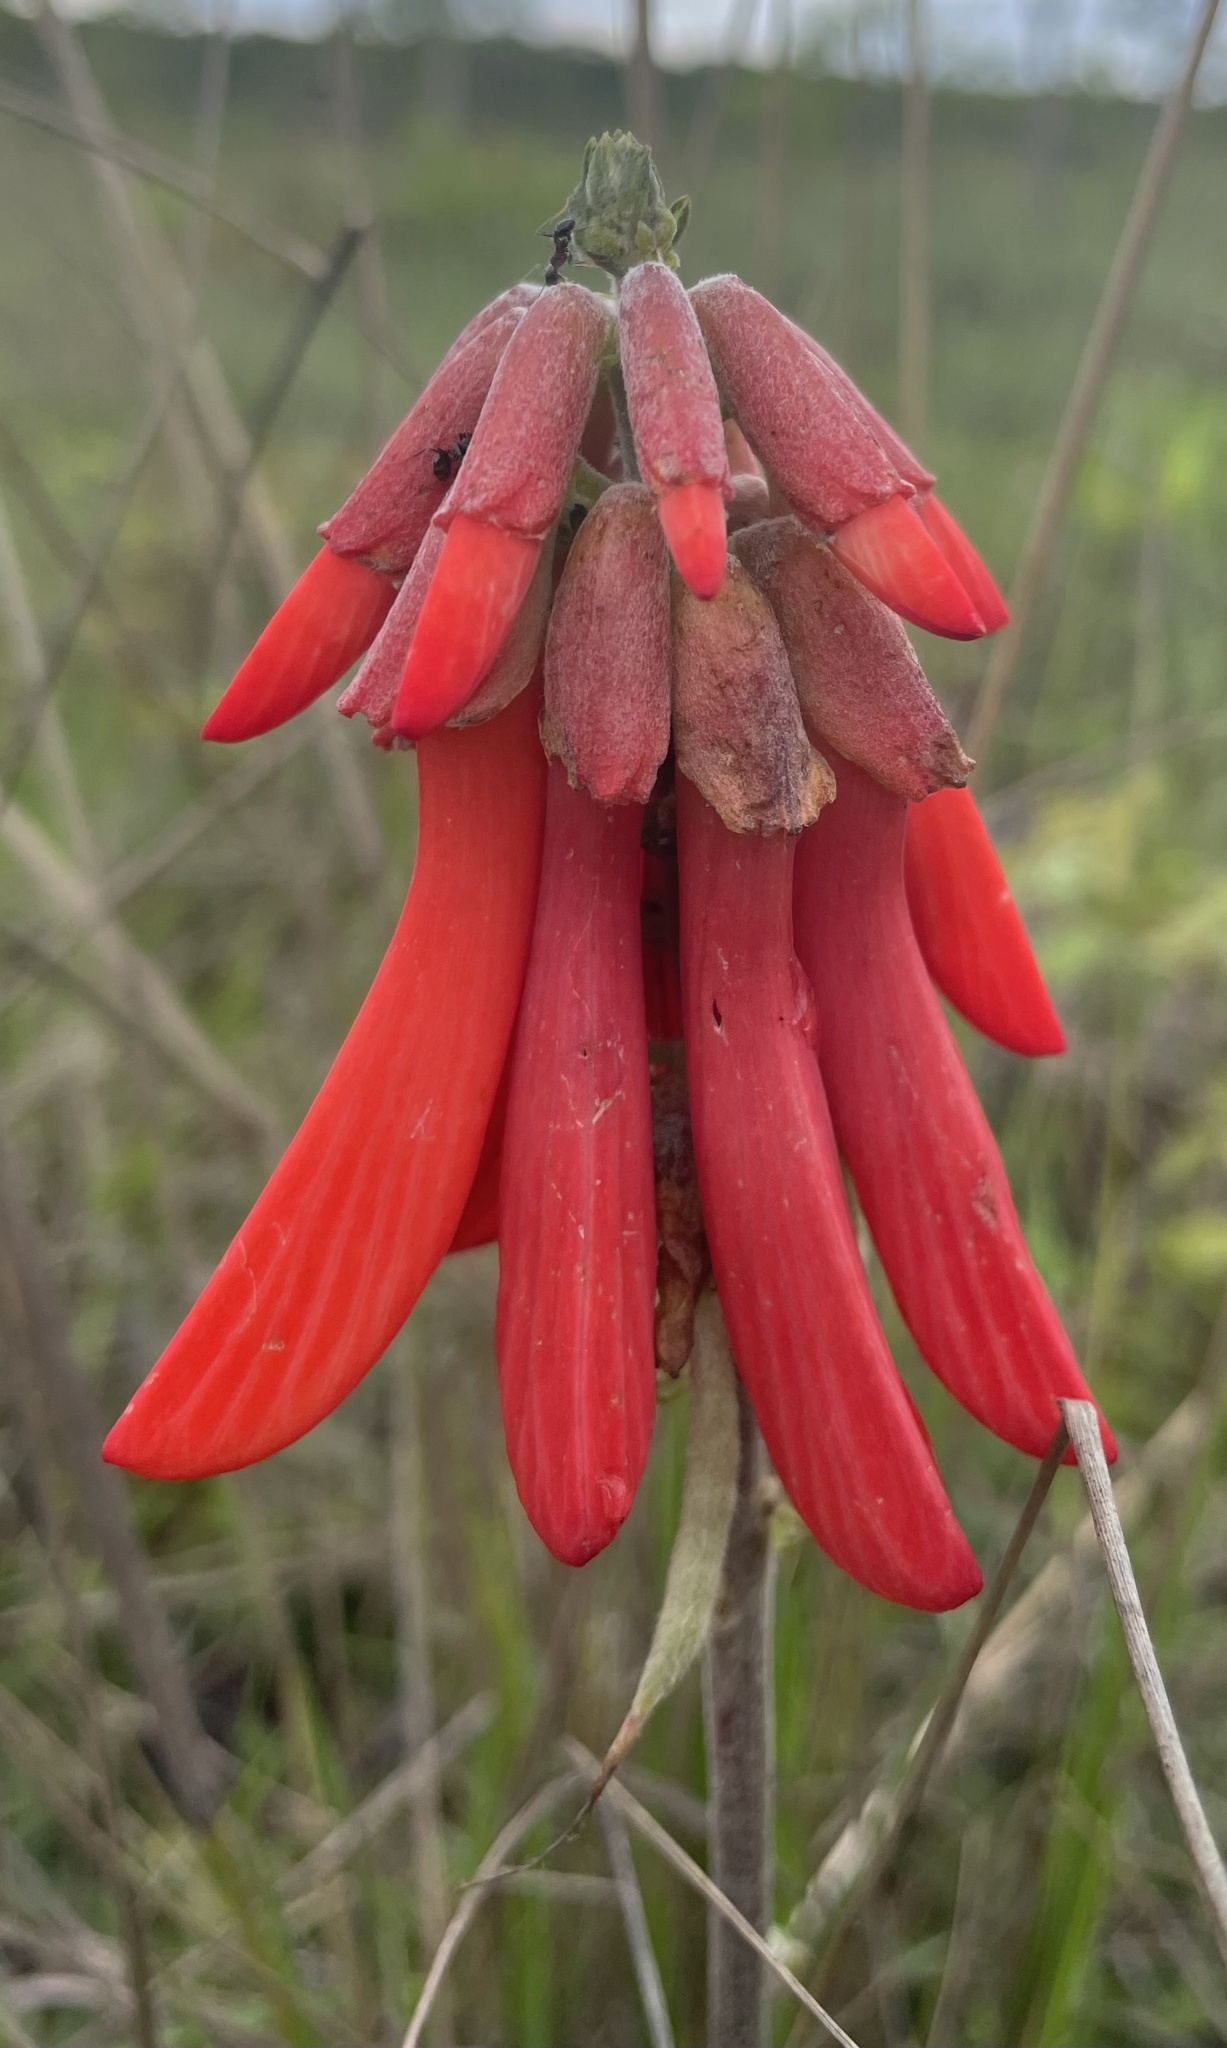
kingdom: Plantae
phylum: Tracheophyta
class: Magnoliopsida
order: Fabales
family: Fabaceae
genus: Erythrina
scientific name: Erythrina baumii
